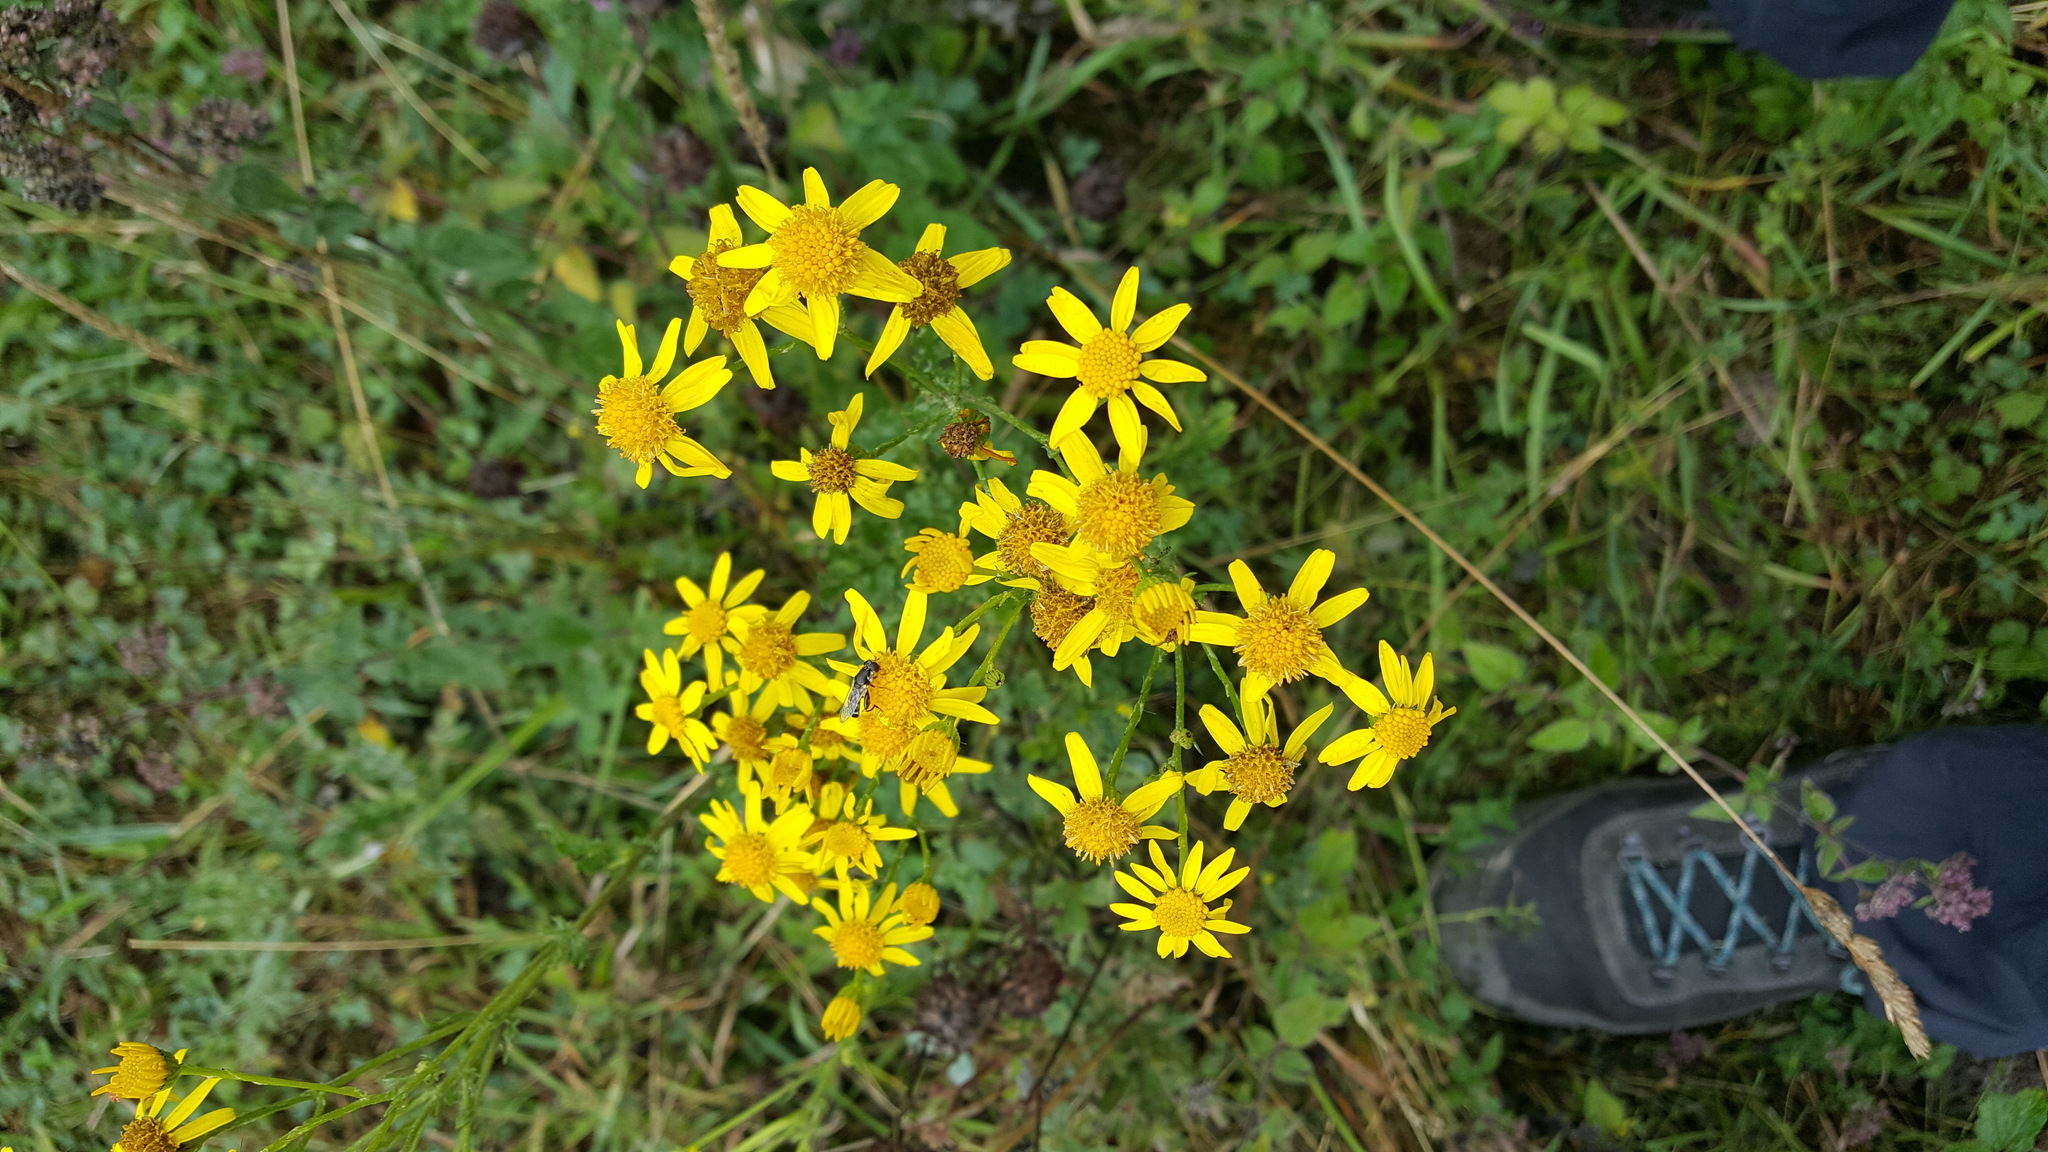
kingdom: Plantae
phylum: Tracheophyta
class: Magnoliopsida
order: Asterales
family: Asteraceae
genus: Jacobaea
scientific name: Jacobaea vulgaris
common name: Stinking willie
